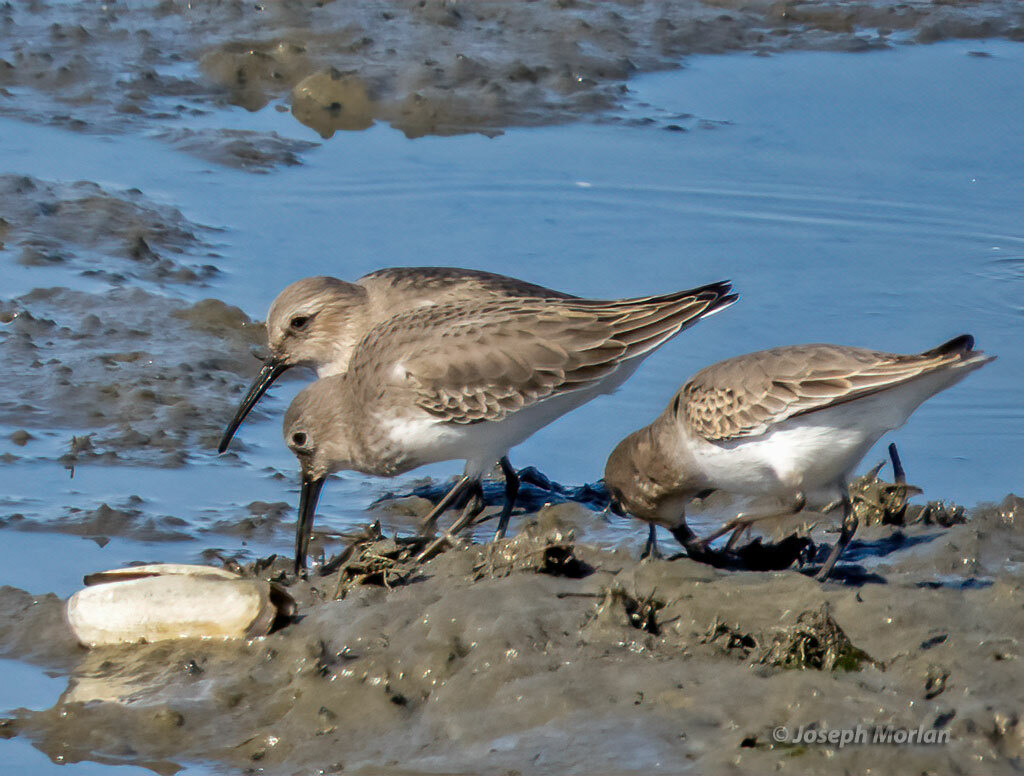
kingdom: Animalia
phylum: Chordata
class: Aves
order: Charadriiformes
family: Scolopacidae
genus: Calidris
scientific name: Calidris alpina
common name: Dunlin
